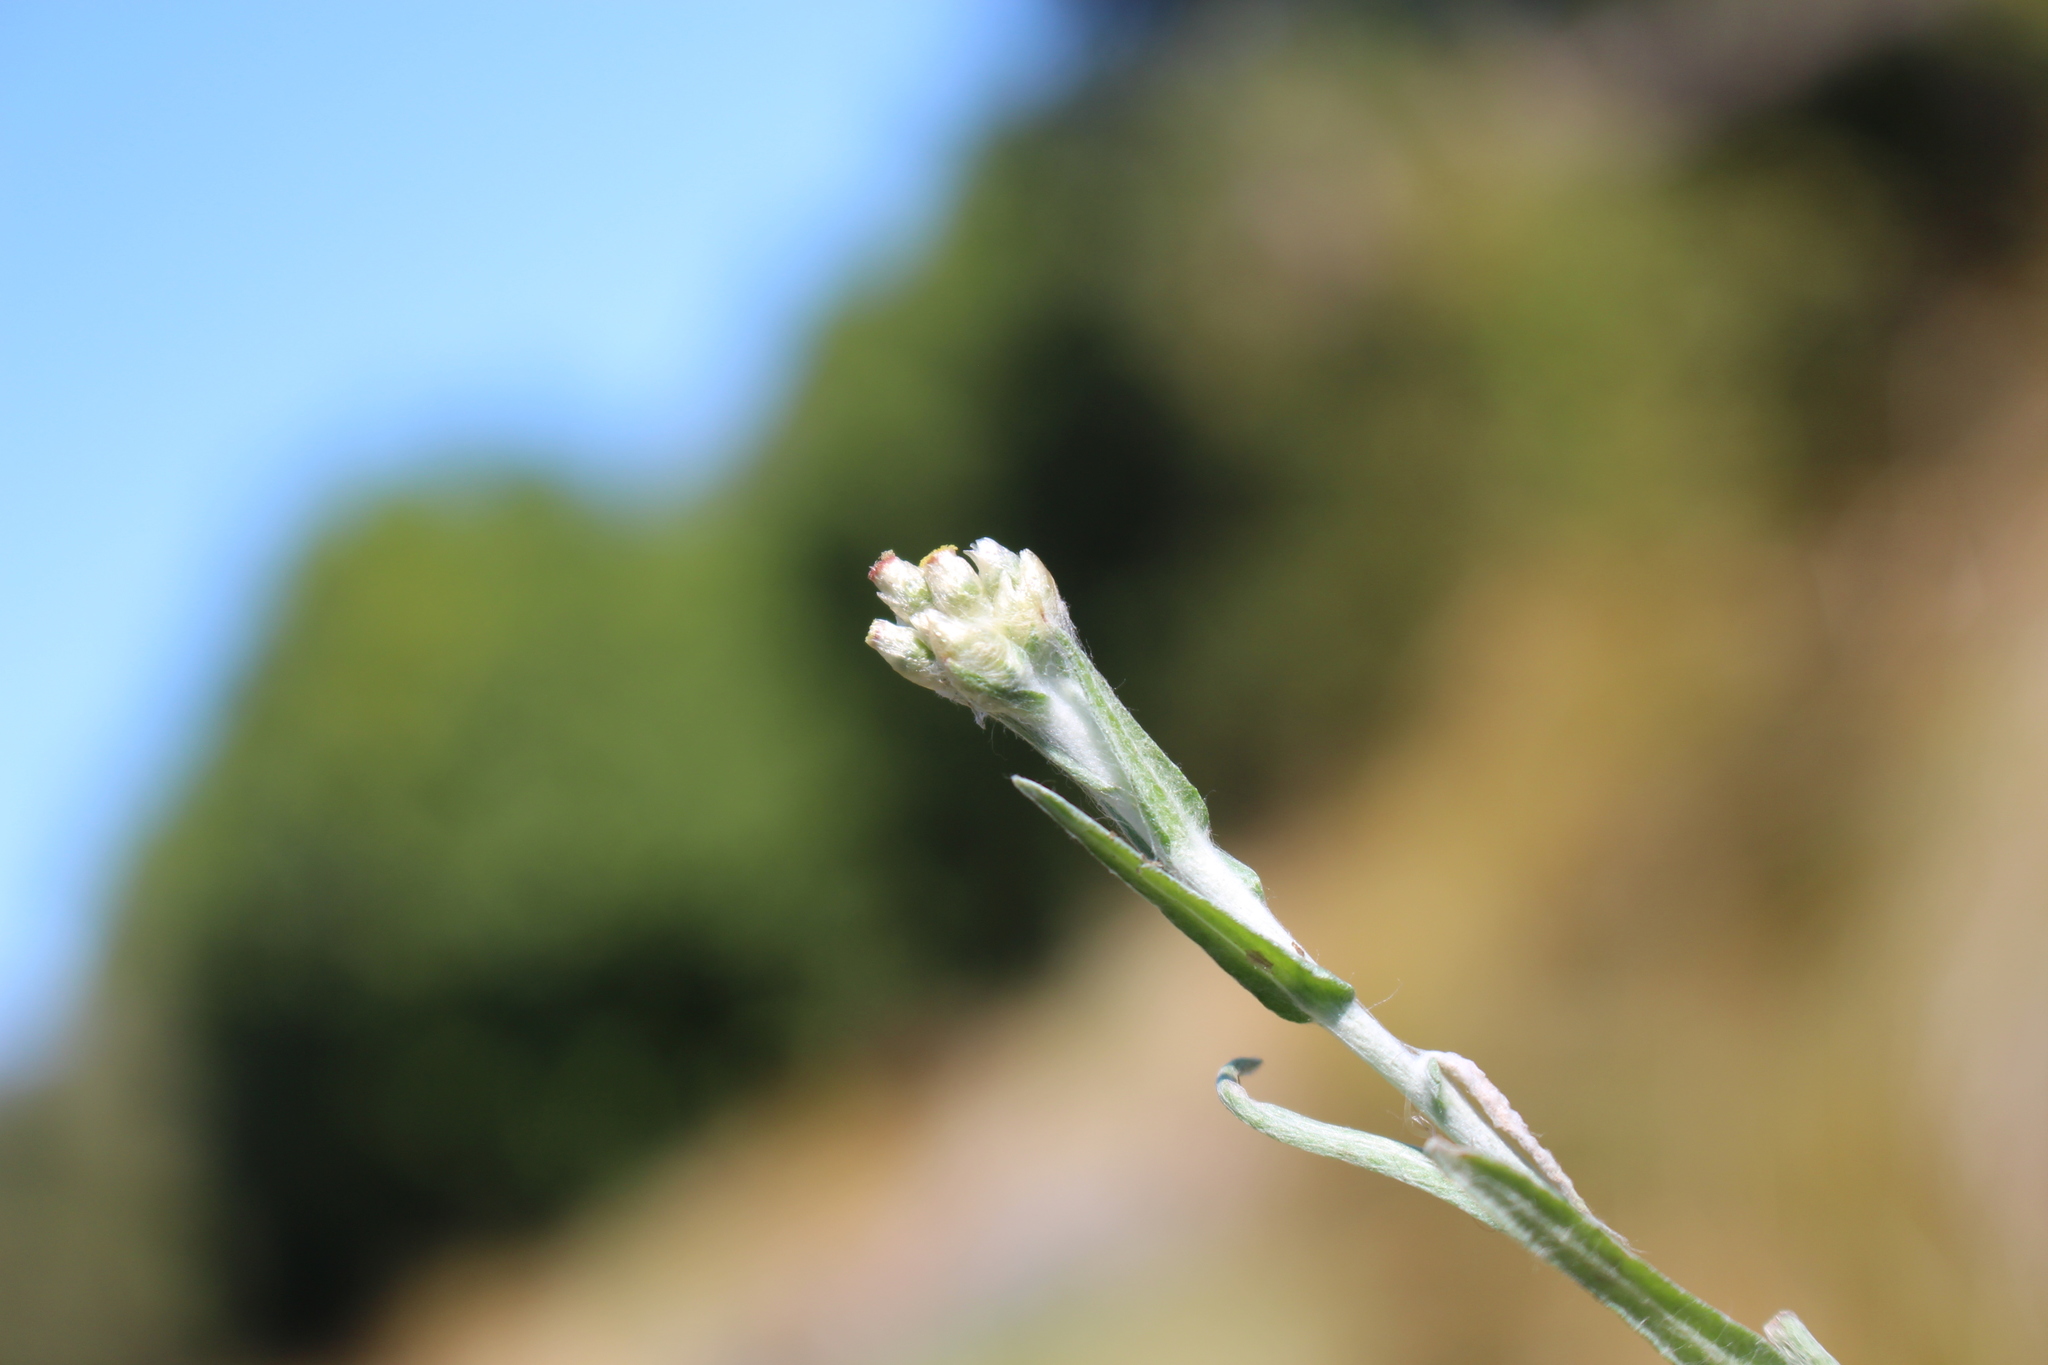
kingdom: Plantae
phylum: Tracheophyta
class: Magnoliopsida
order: Asterales
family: Asteraceae
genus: Helichrysum
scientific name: Helichrysum luteoalbum
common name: Daisy
